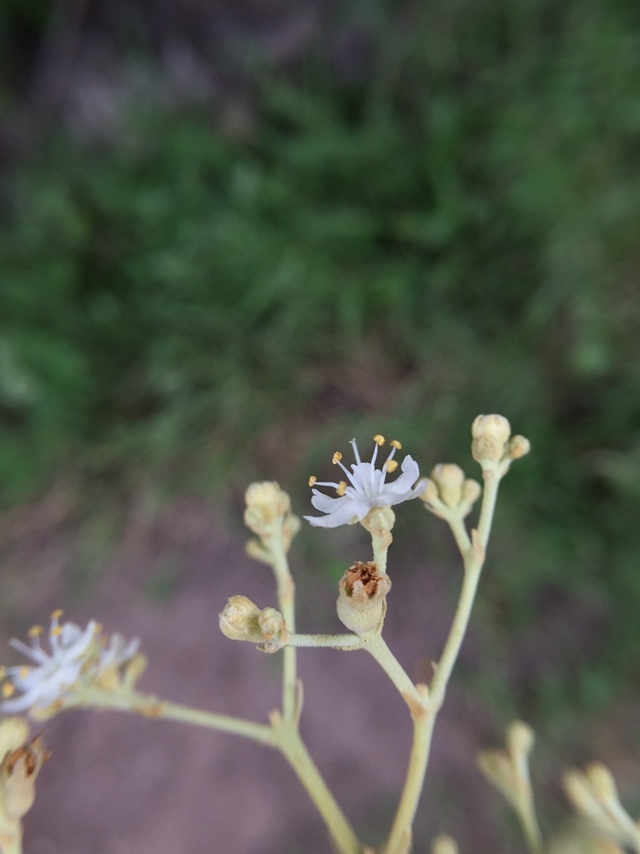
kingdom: Plantae
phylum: Tracheophyta
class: Magnoliopsida
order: Lamiales
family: Lamiaceae
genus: Tectona
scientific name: Tectona grandis
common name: Teak
